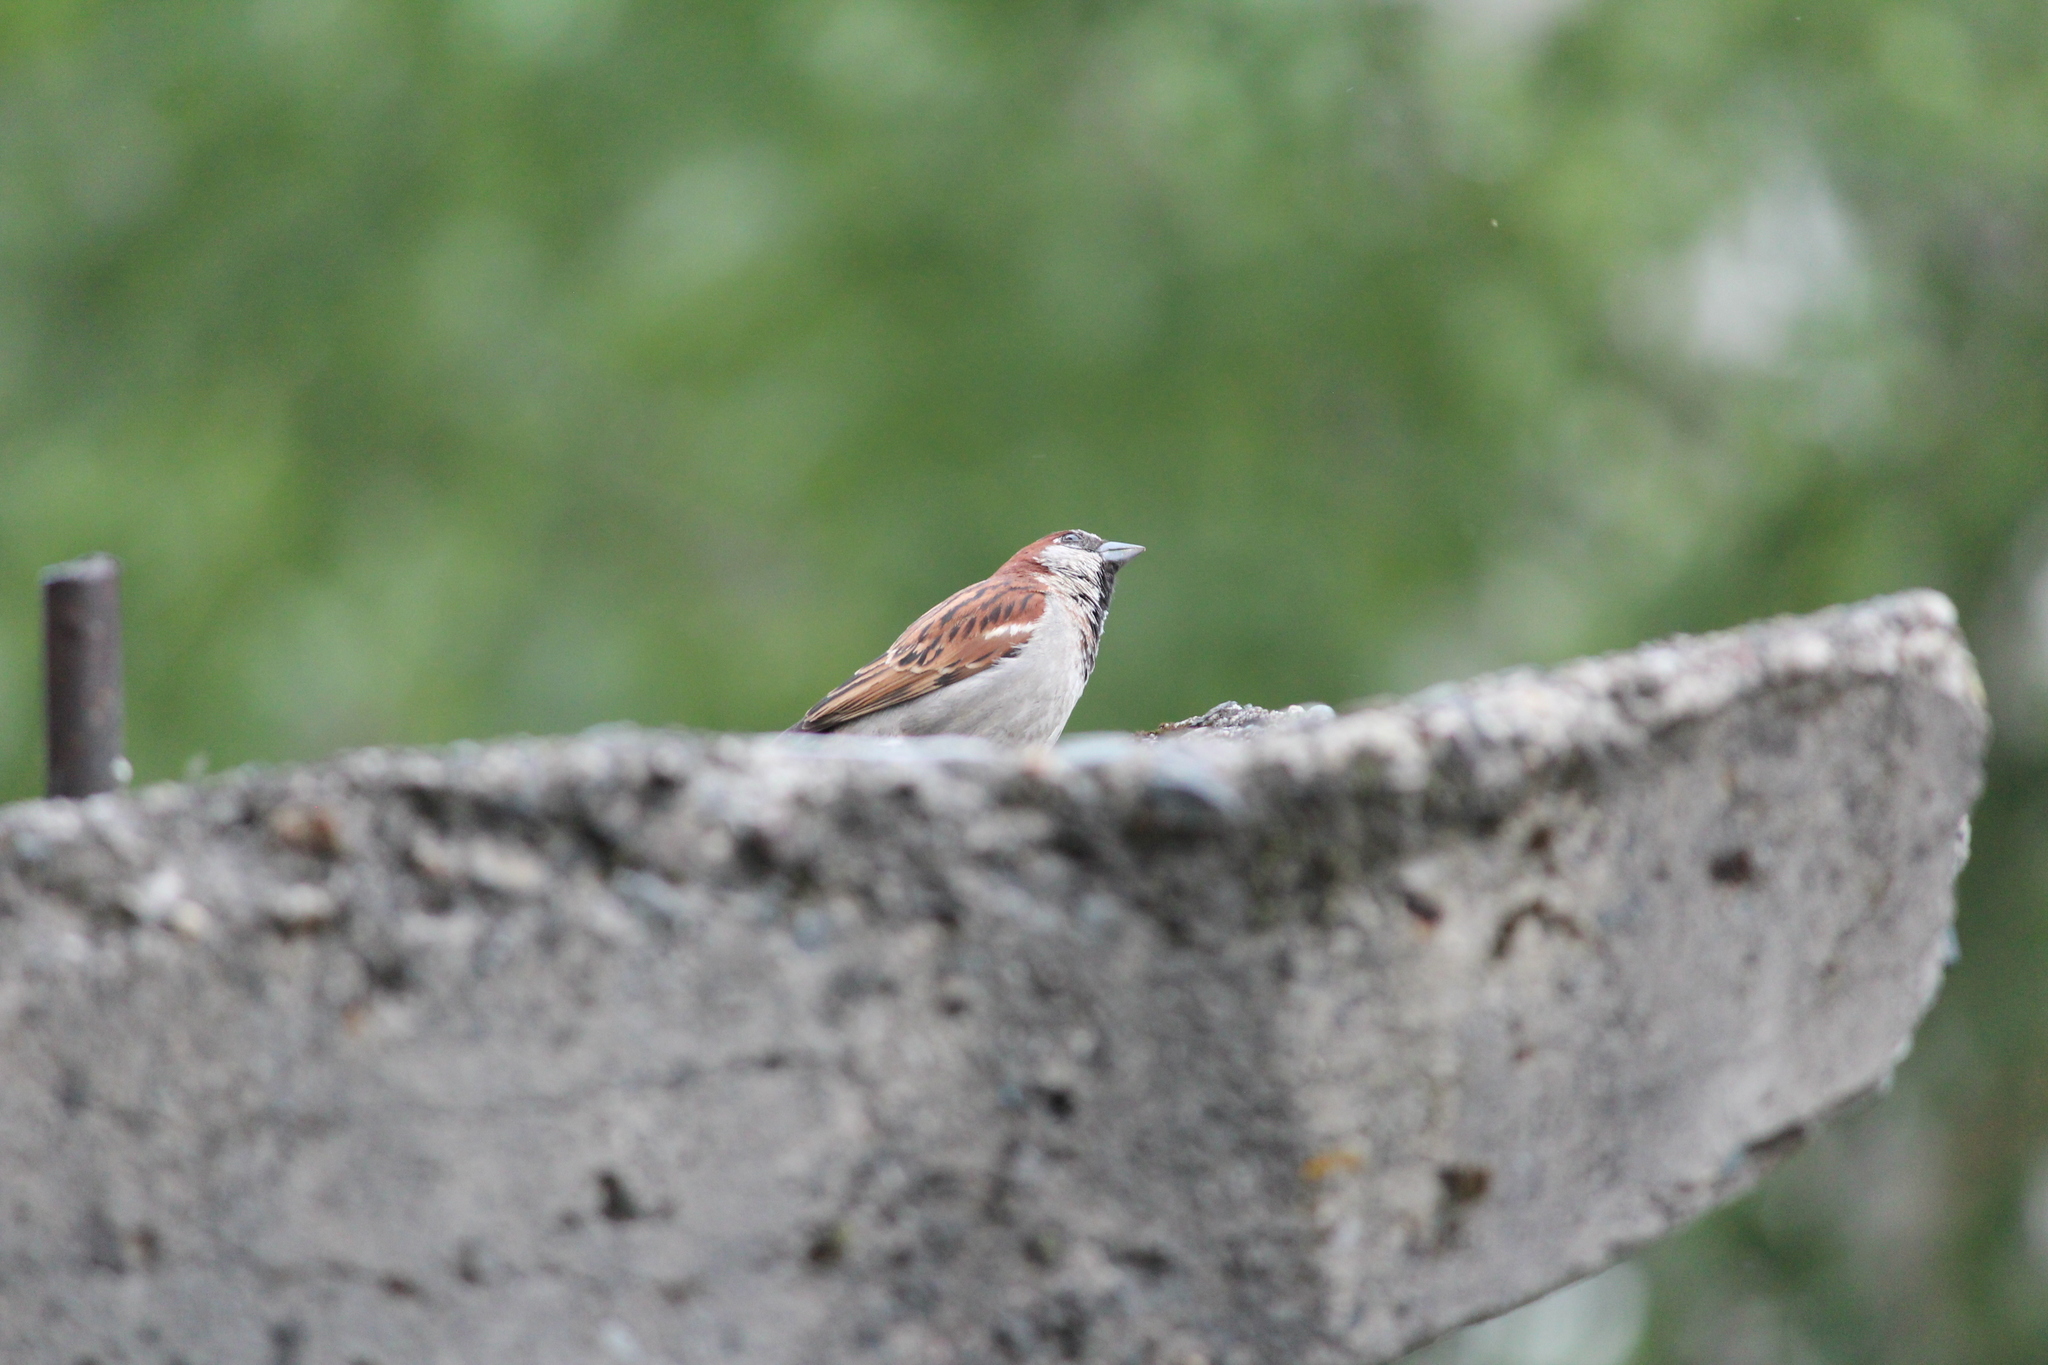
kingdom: Animalia
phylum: Chordata
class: Aves
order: Passeriformes
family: Passeridae
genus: Passer
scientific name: Passer domesticus
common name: House sparrow
